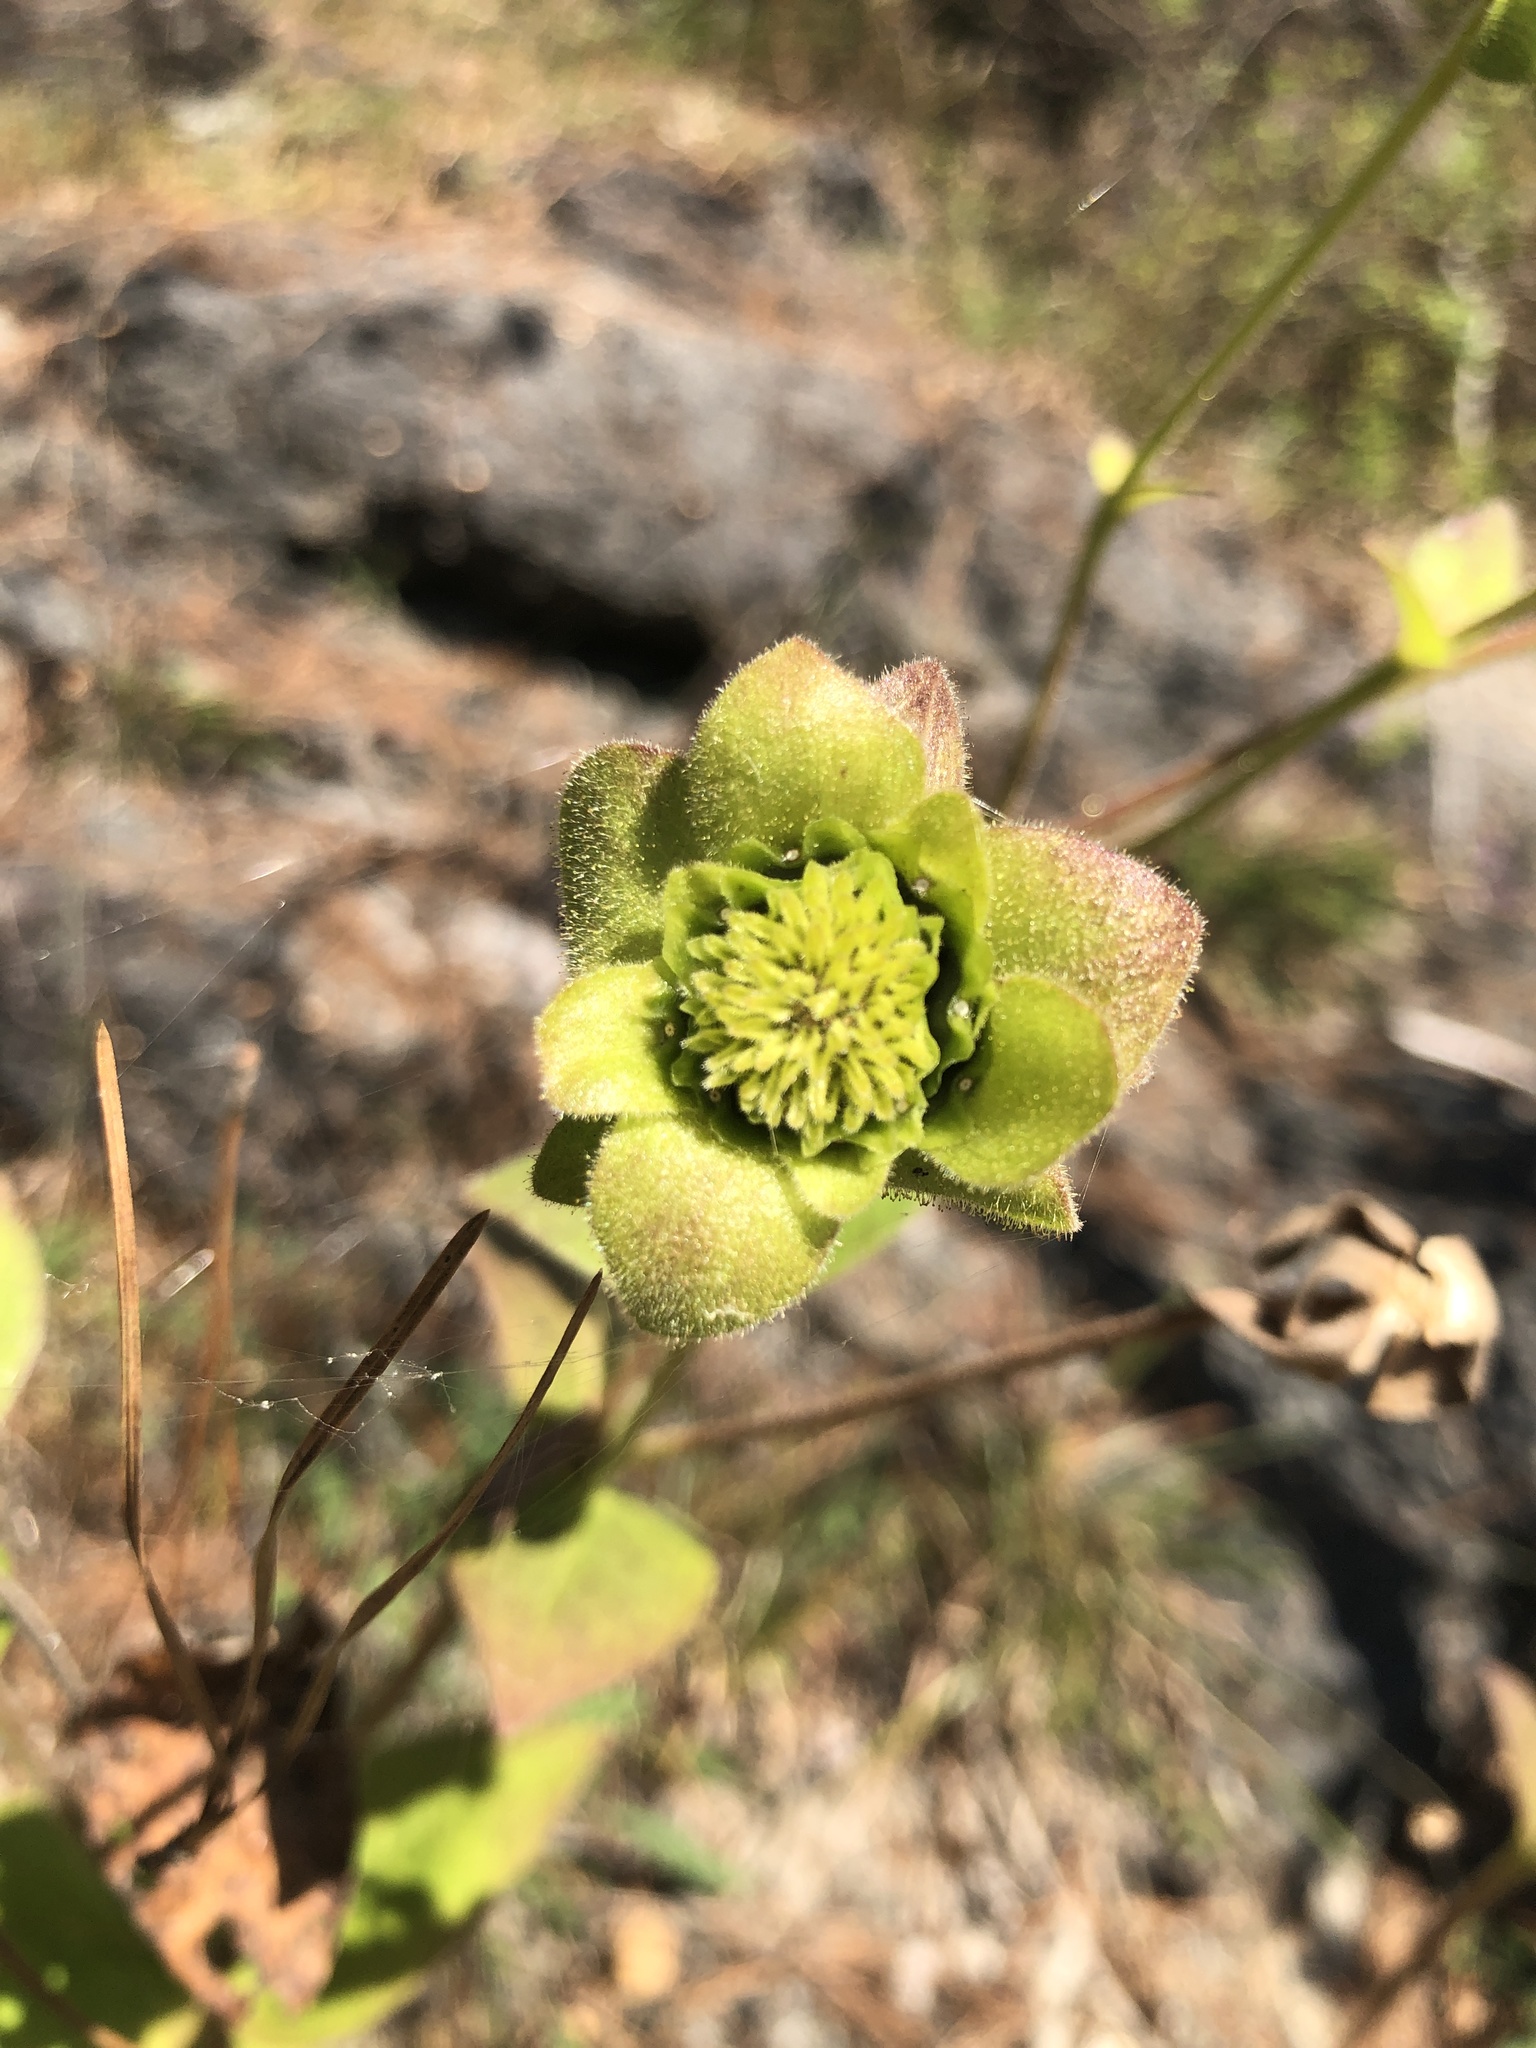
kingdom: Plantae
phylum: Tracheophyta
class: Magnoliopsida
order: Asterales
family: Asteraceae
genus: Silphium
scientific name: Silphium glutinosum
